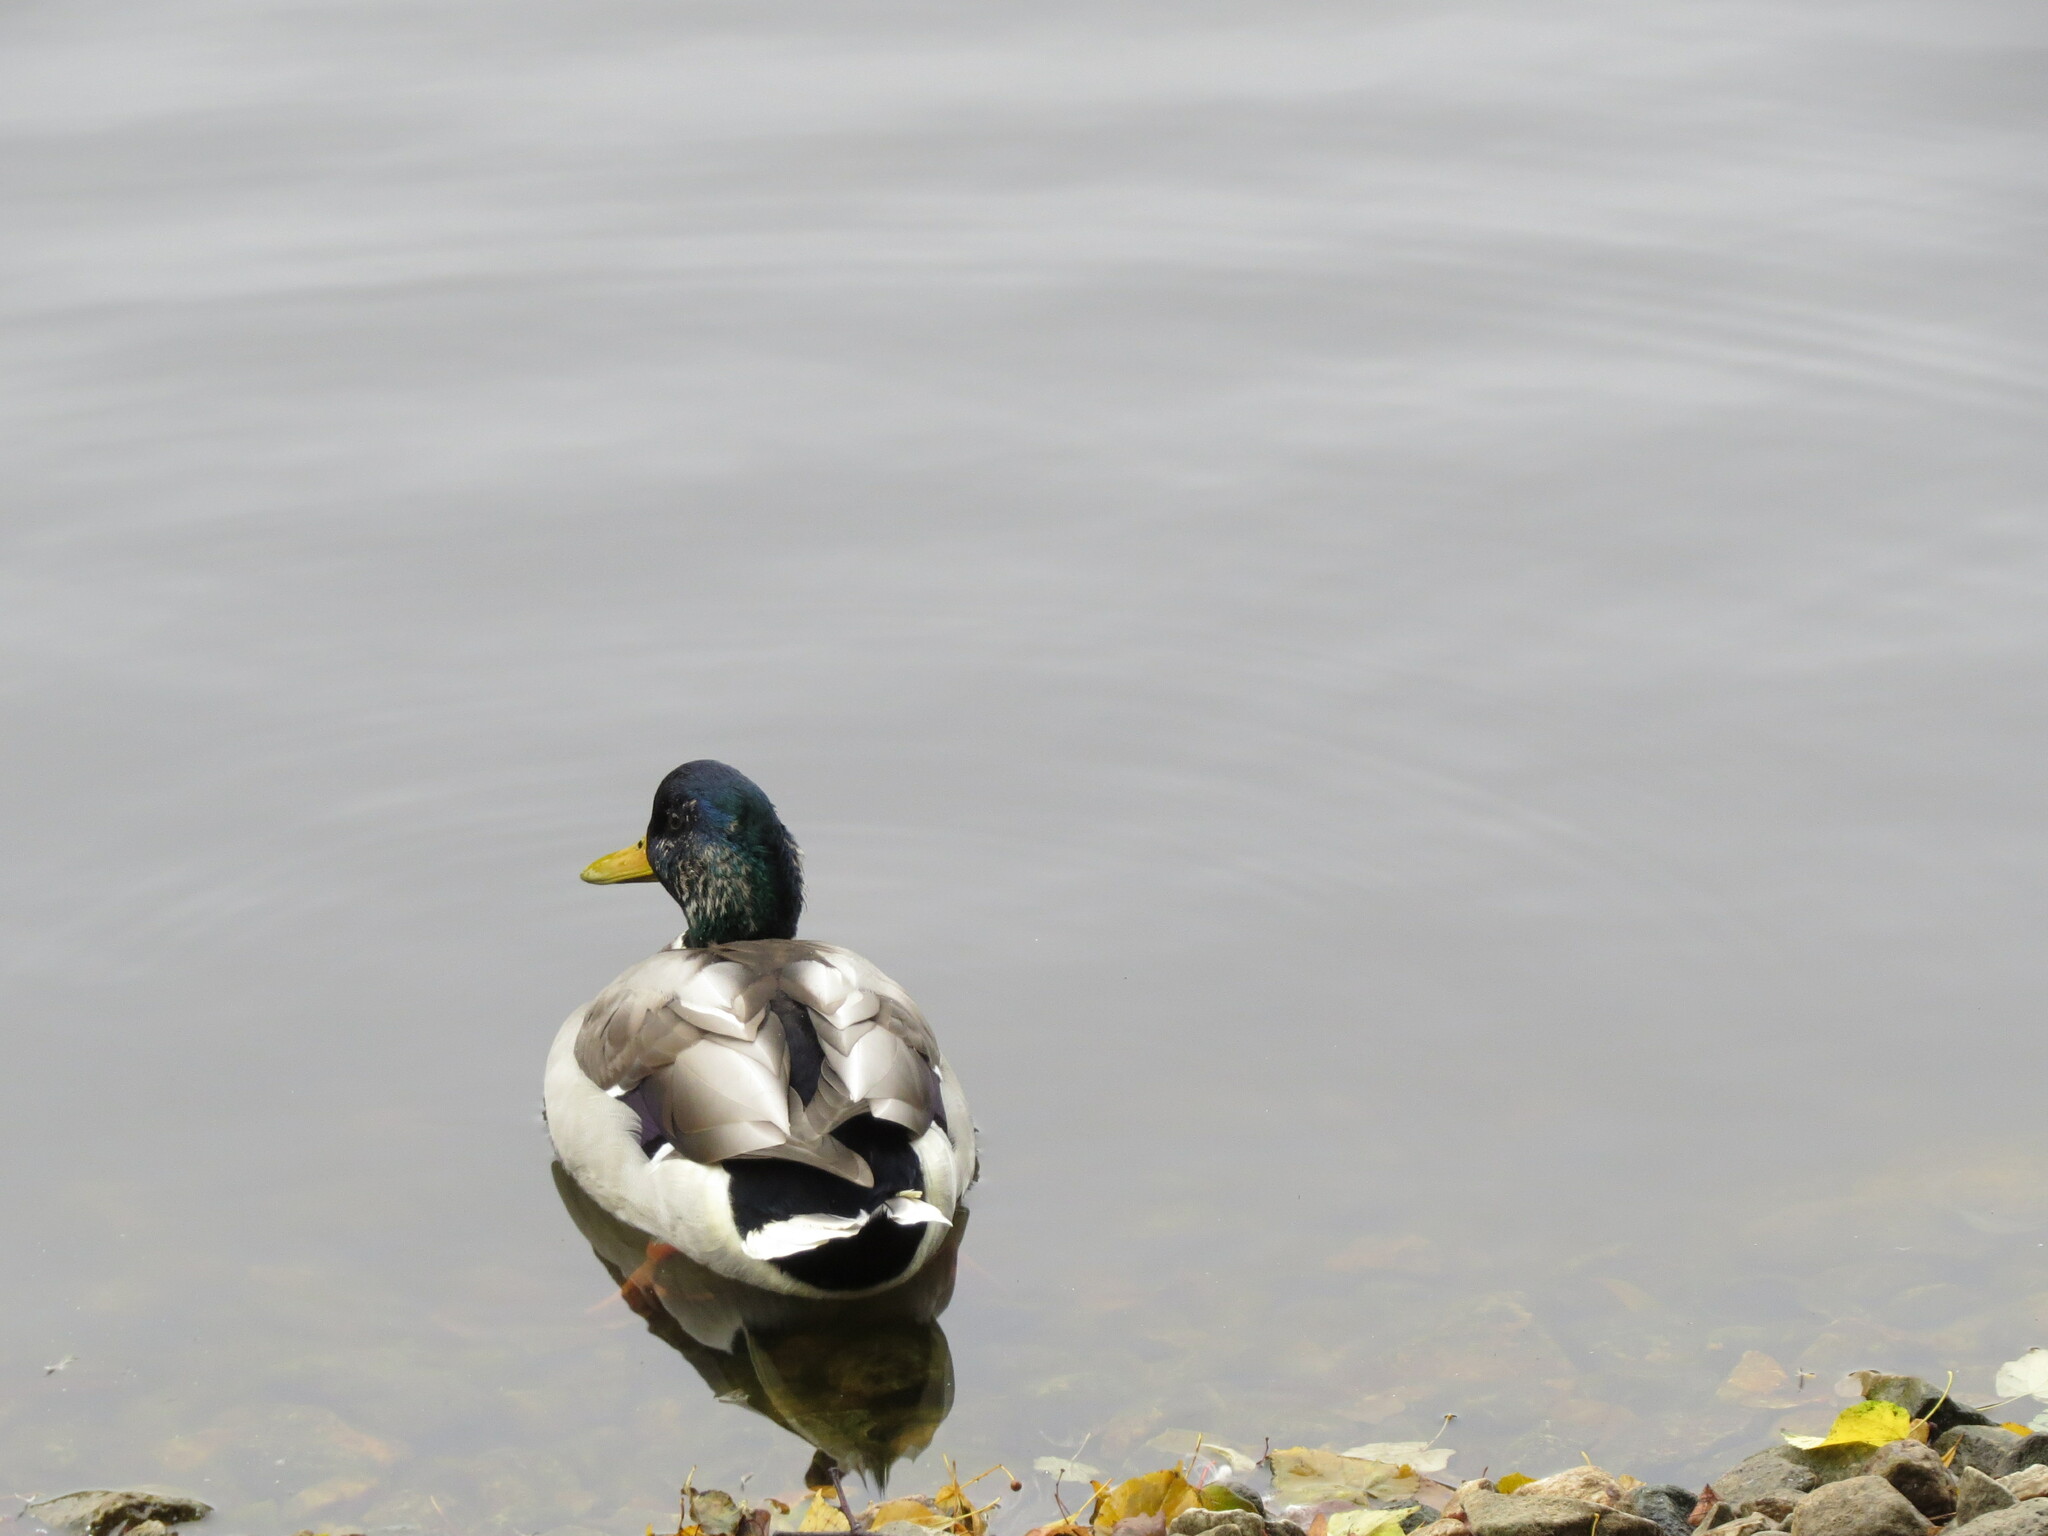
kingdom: Animalia
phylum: Chordata
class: Aves
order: Anseriformes
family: Anatidae
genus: Anas
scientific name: Anas platyrhynchos
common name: Mallard
